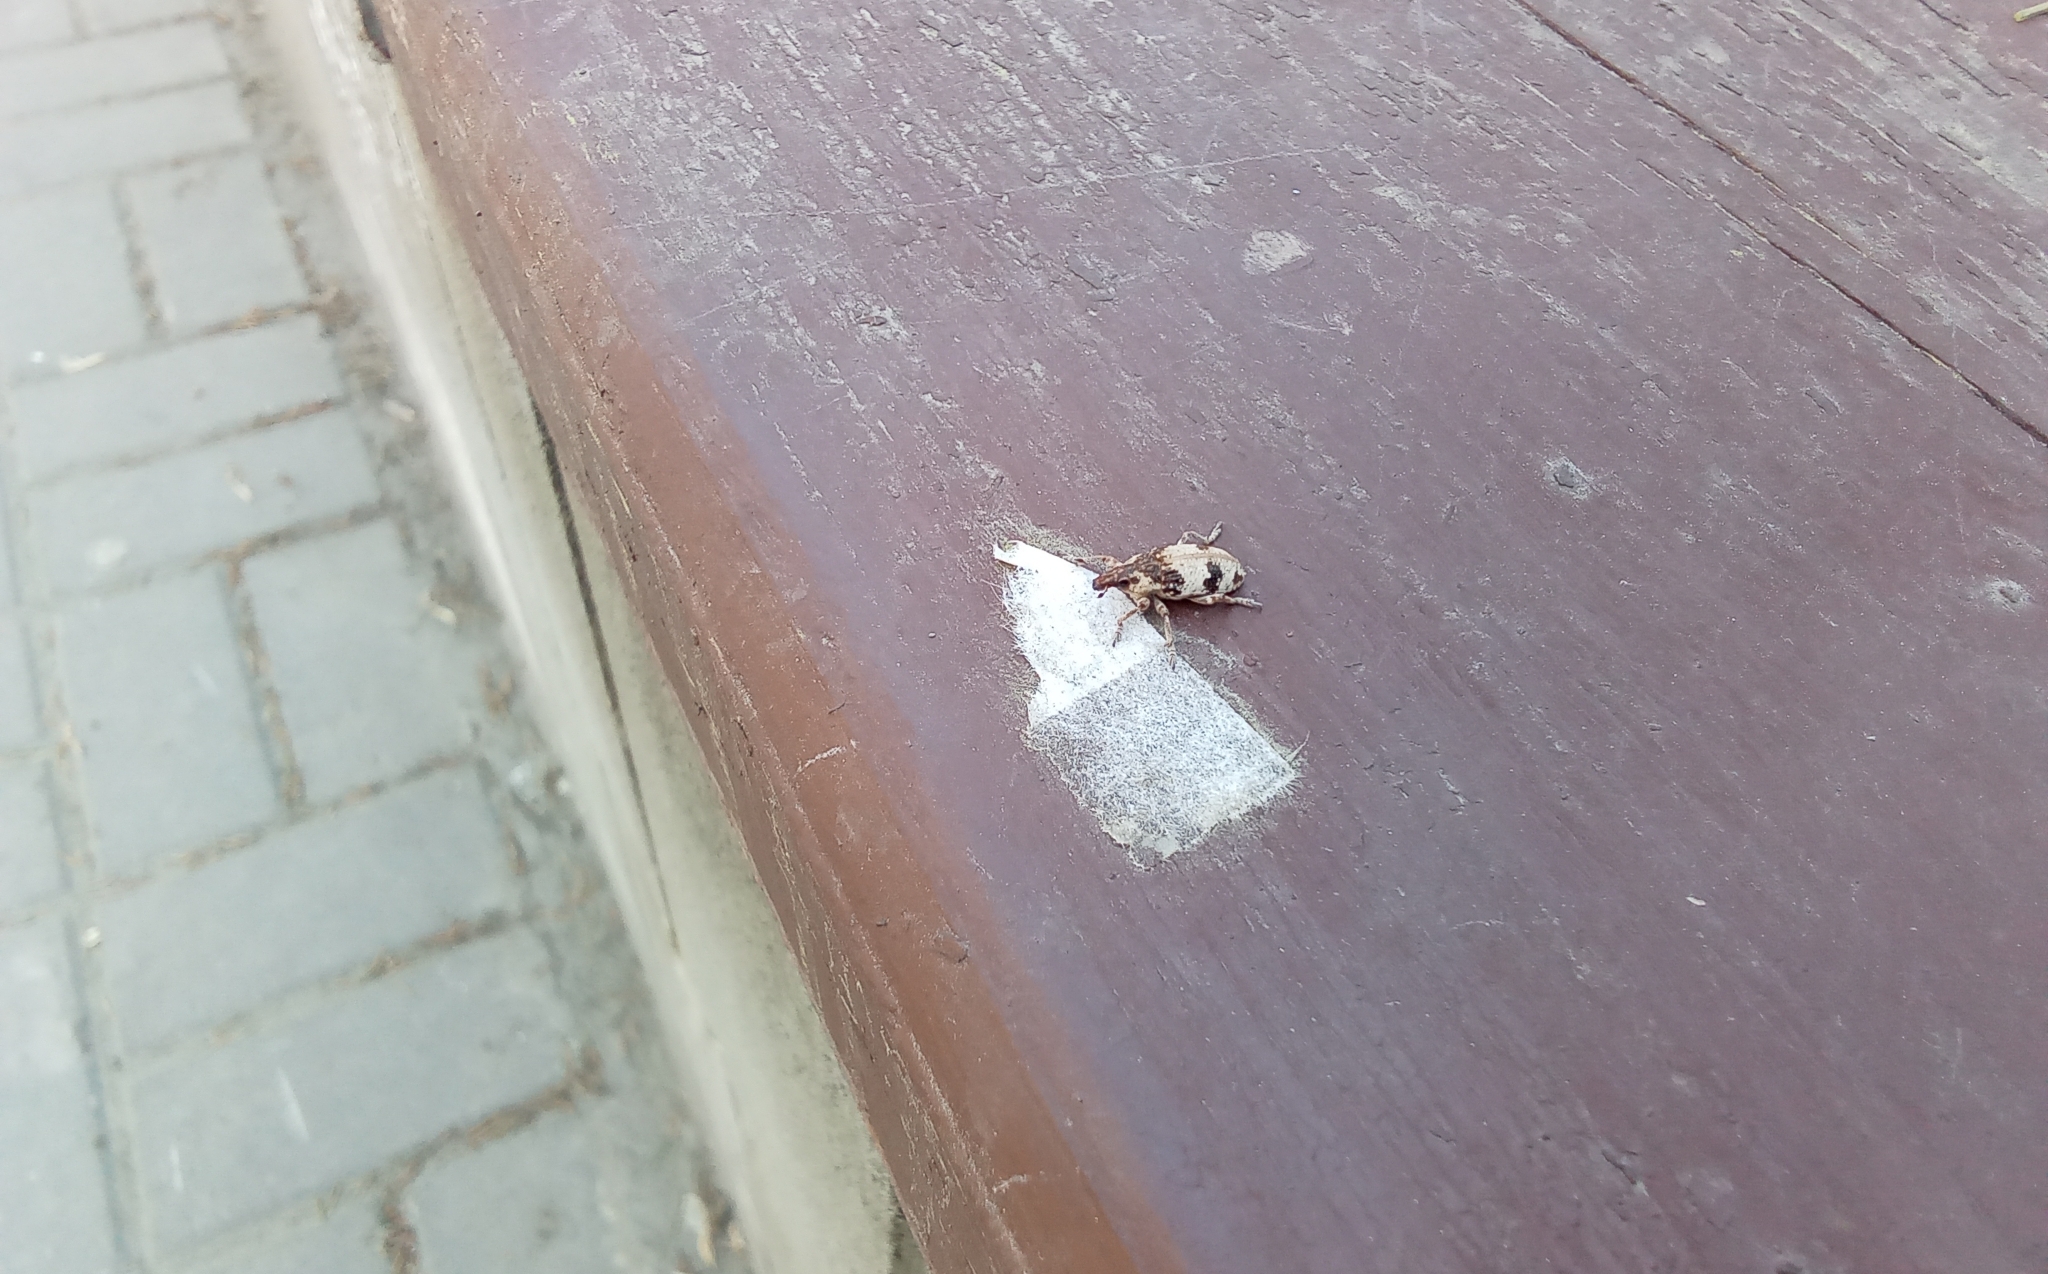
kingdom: Animalia
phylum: Arthropoda
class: Insecta
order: Coleoptera
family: Curculionidae
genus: Bothynoderes
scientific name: Bothynoderes affinis
